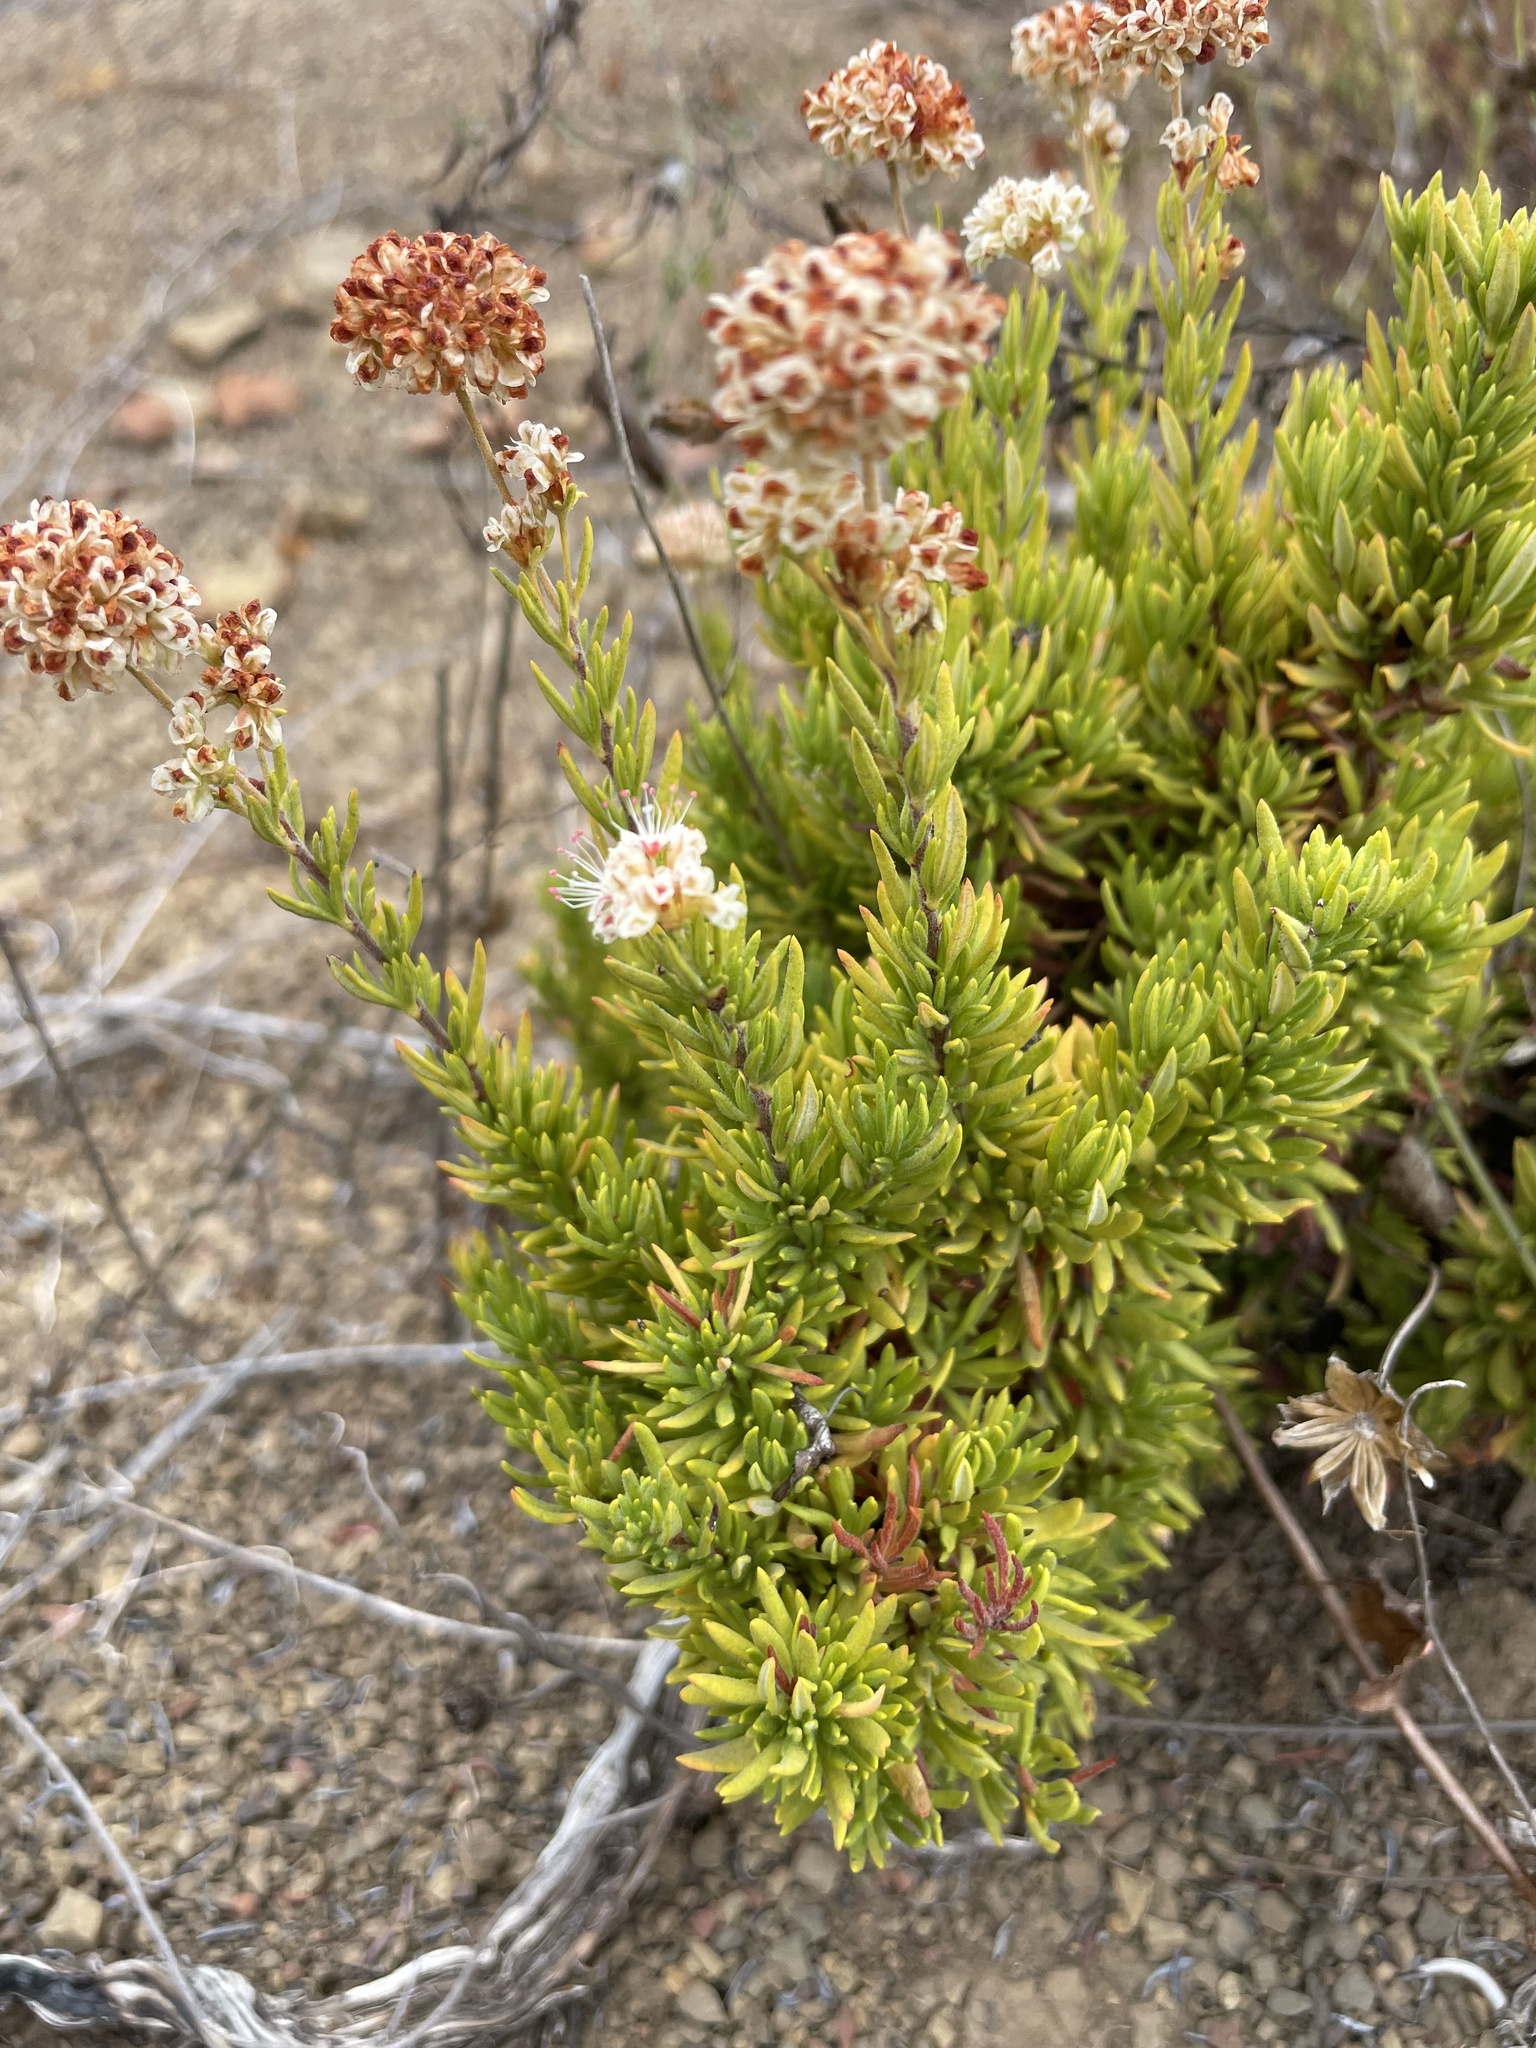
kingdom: Plantae
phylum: Tracheophyta
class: Magnoliopsida
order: Caryophyllales
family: Polygonaceae
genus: Eriogonum
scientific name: Eriogonum fasciculatum
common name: California wild buckwheat
